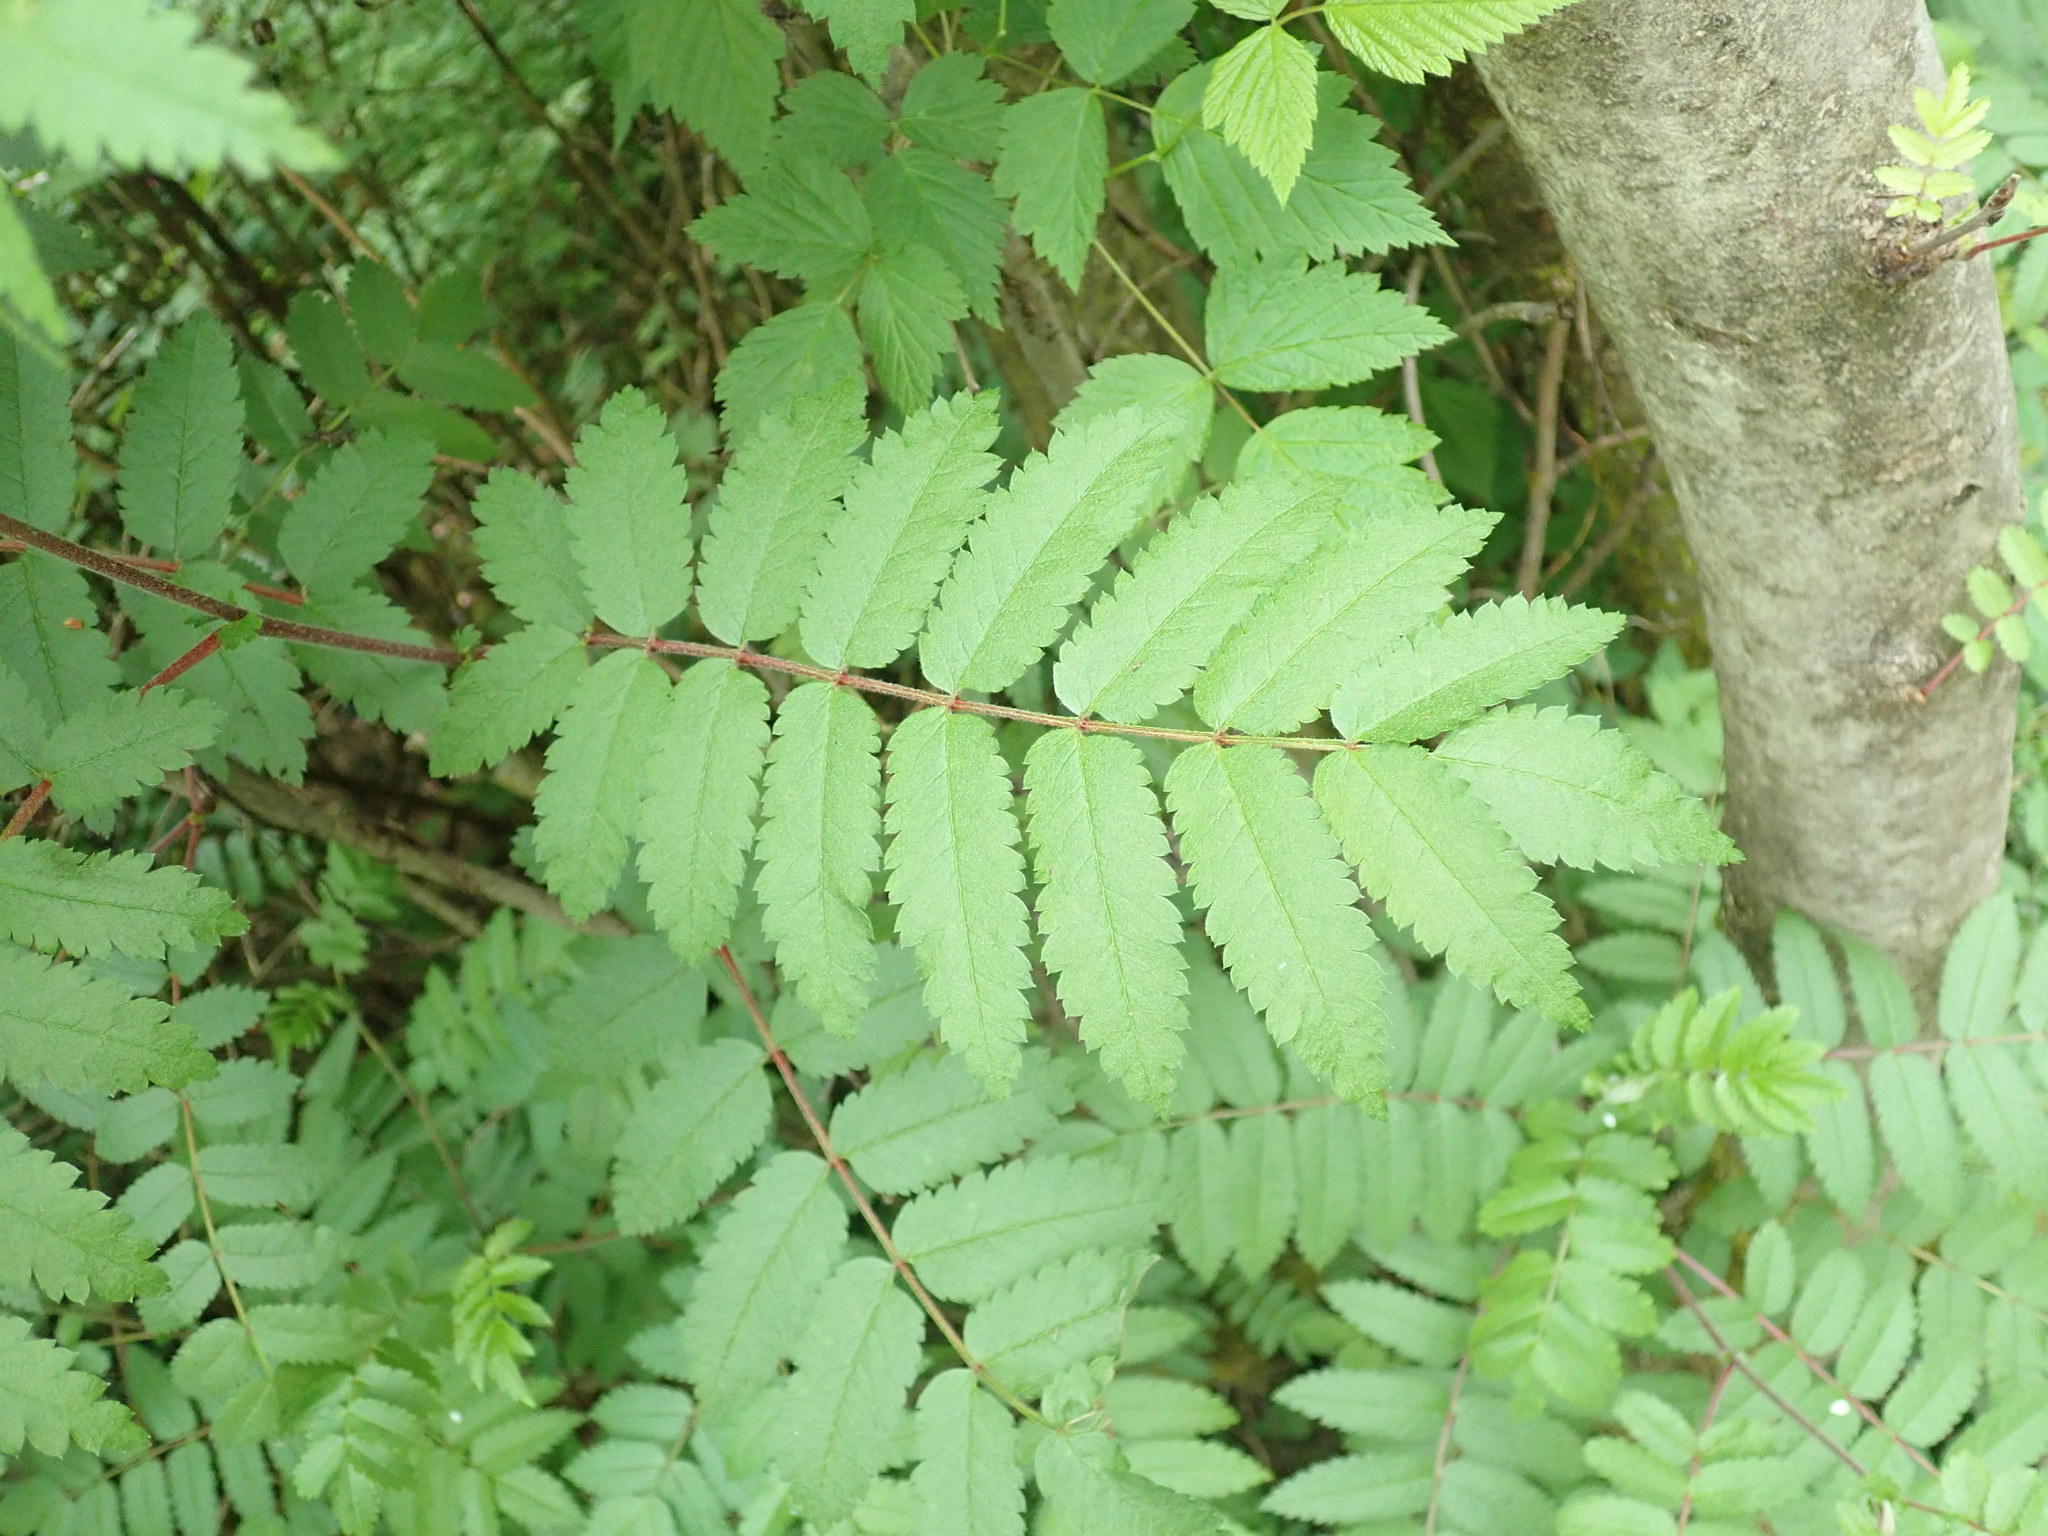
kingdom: Plantae
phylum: Tracheophyta
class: Magnoliopsida
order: Rosales
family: Rosaceae
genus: Sorbus
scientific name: Sorbus aucuparia
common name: Rowan
